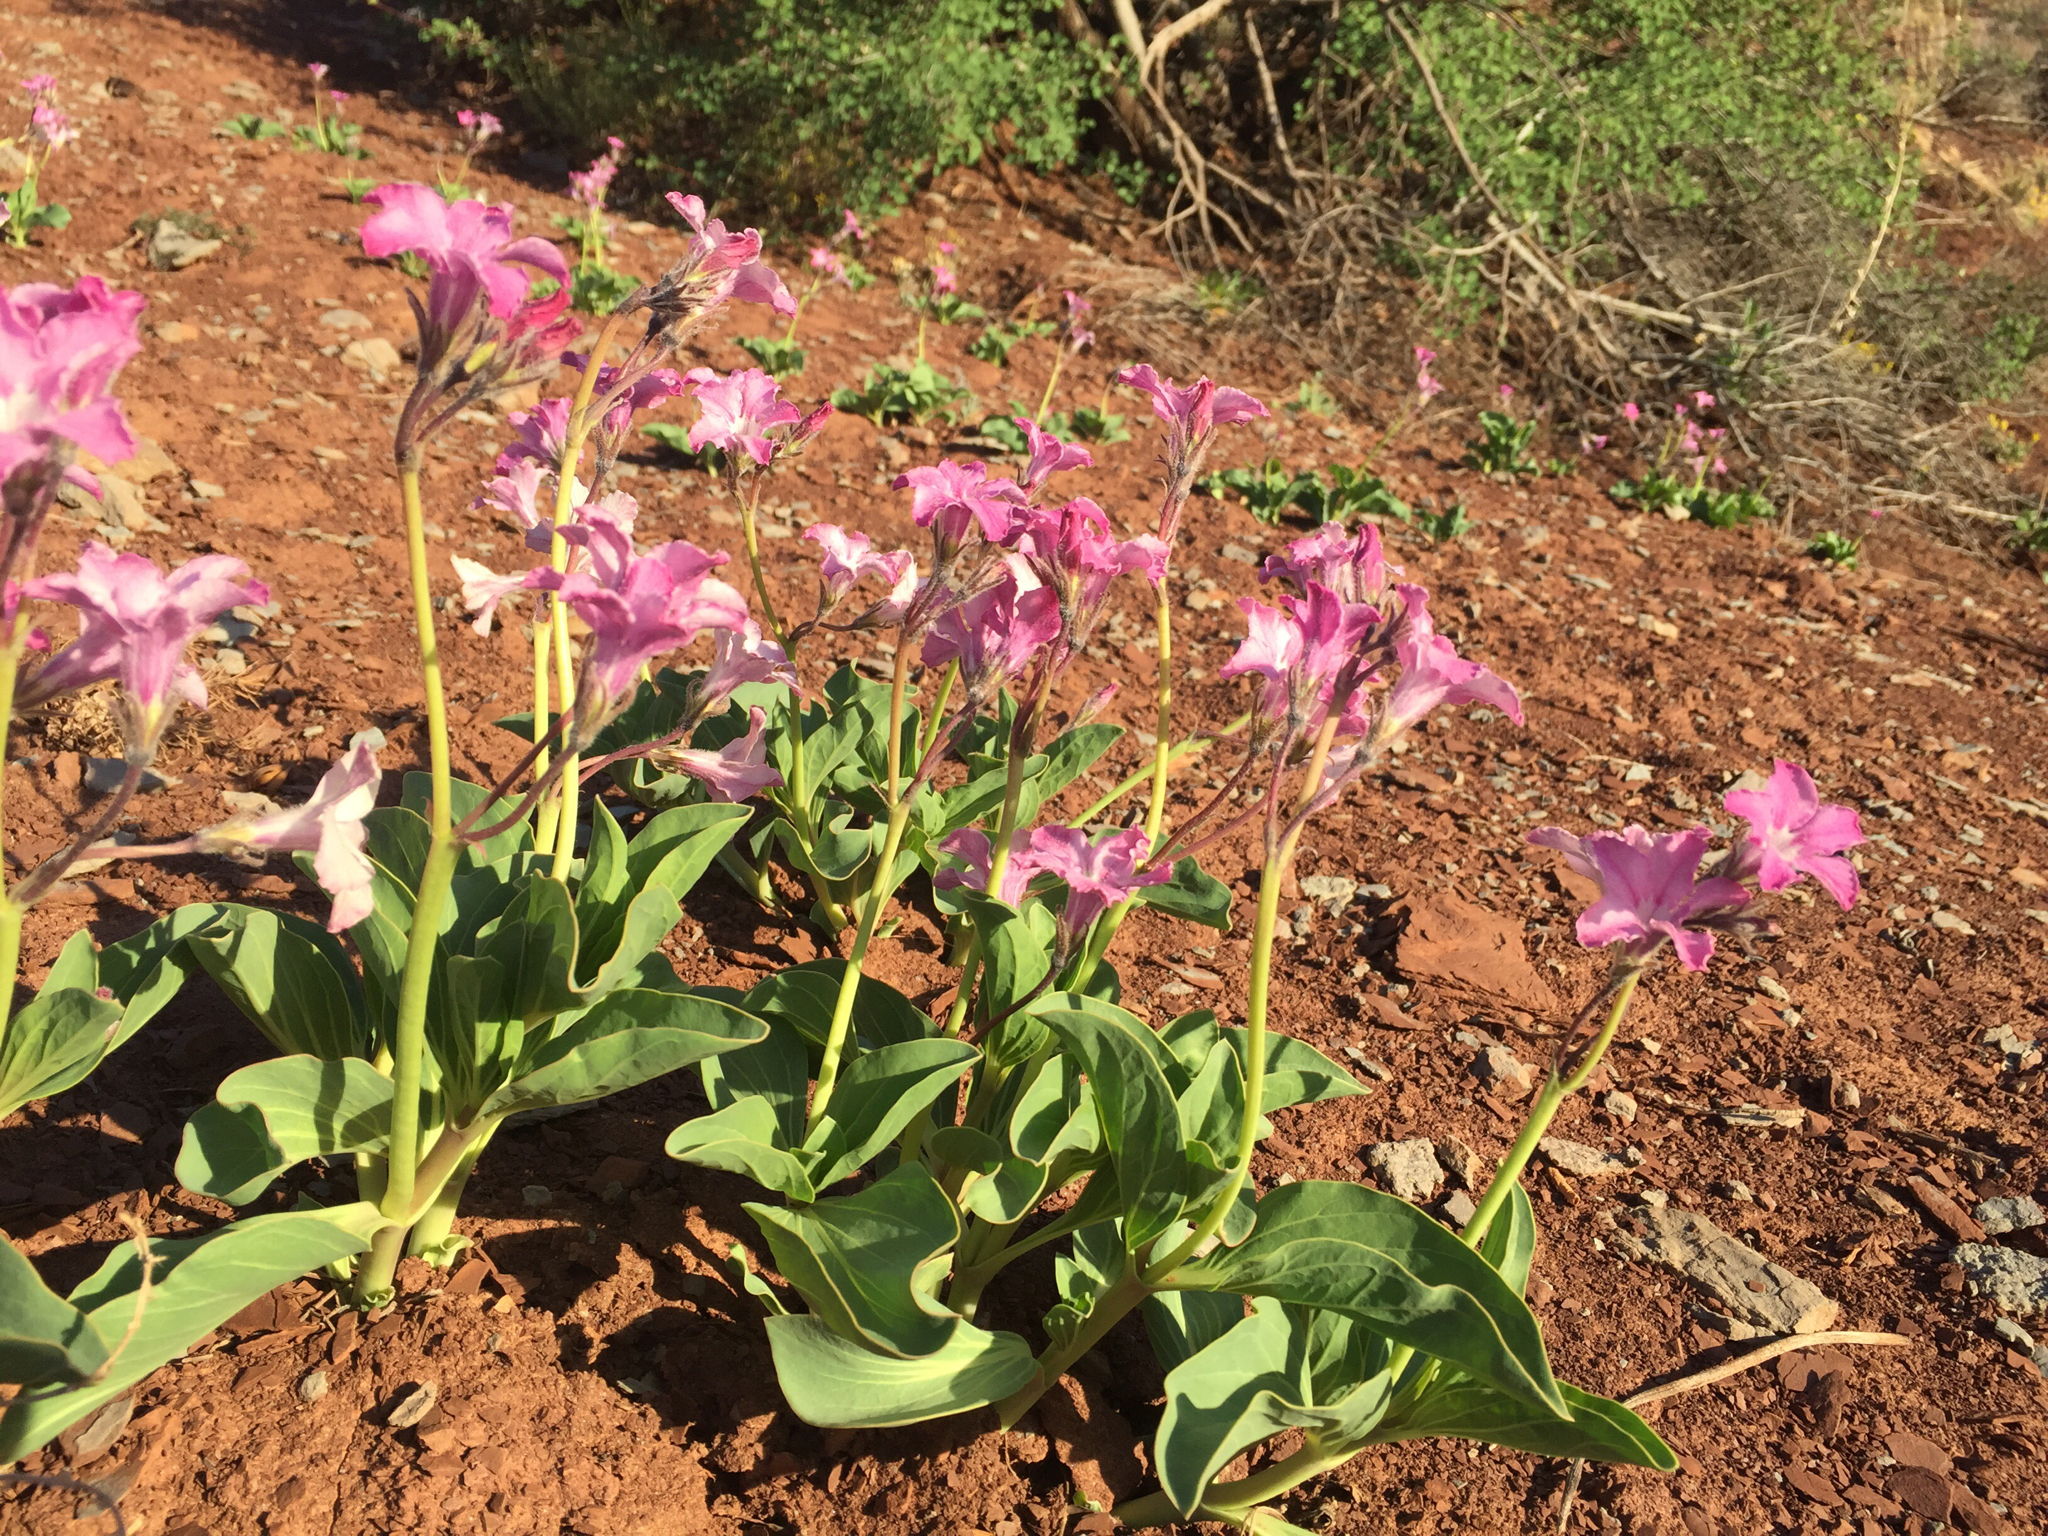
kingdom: Plantae
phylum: Tracheophyta
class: Magnoliopsida
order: Gentianales
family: Apocynaceae
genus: Cycladenia
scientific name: Cycladenia humilis
